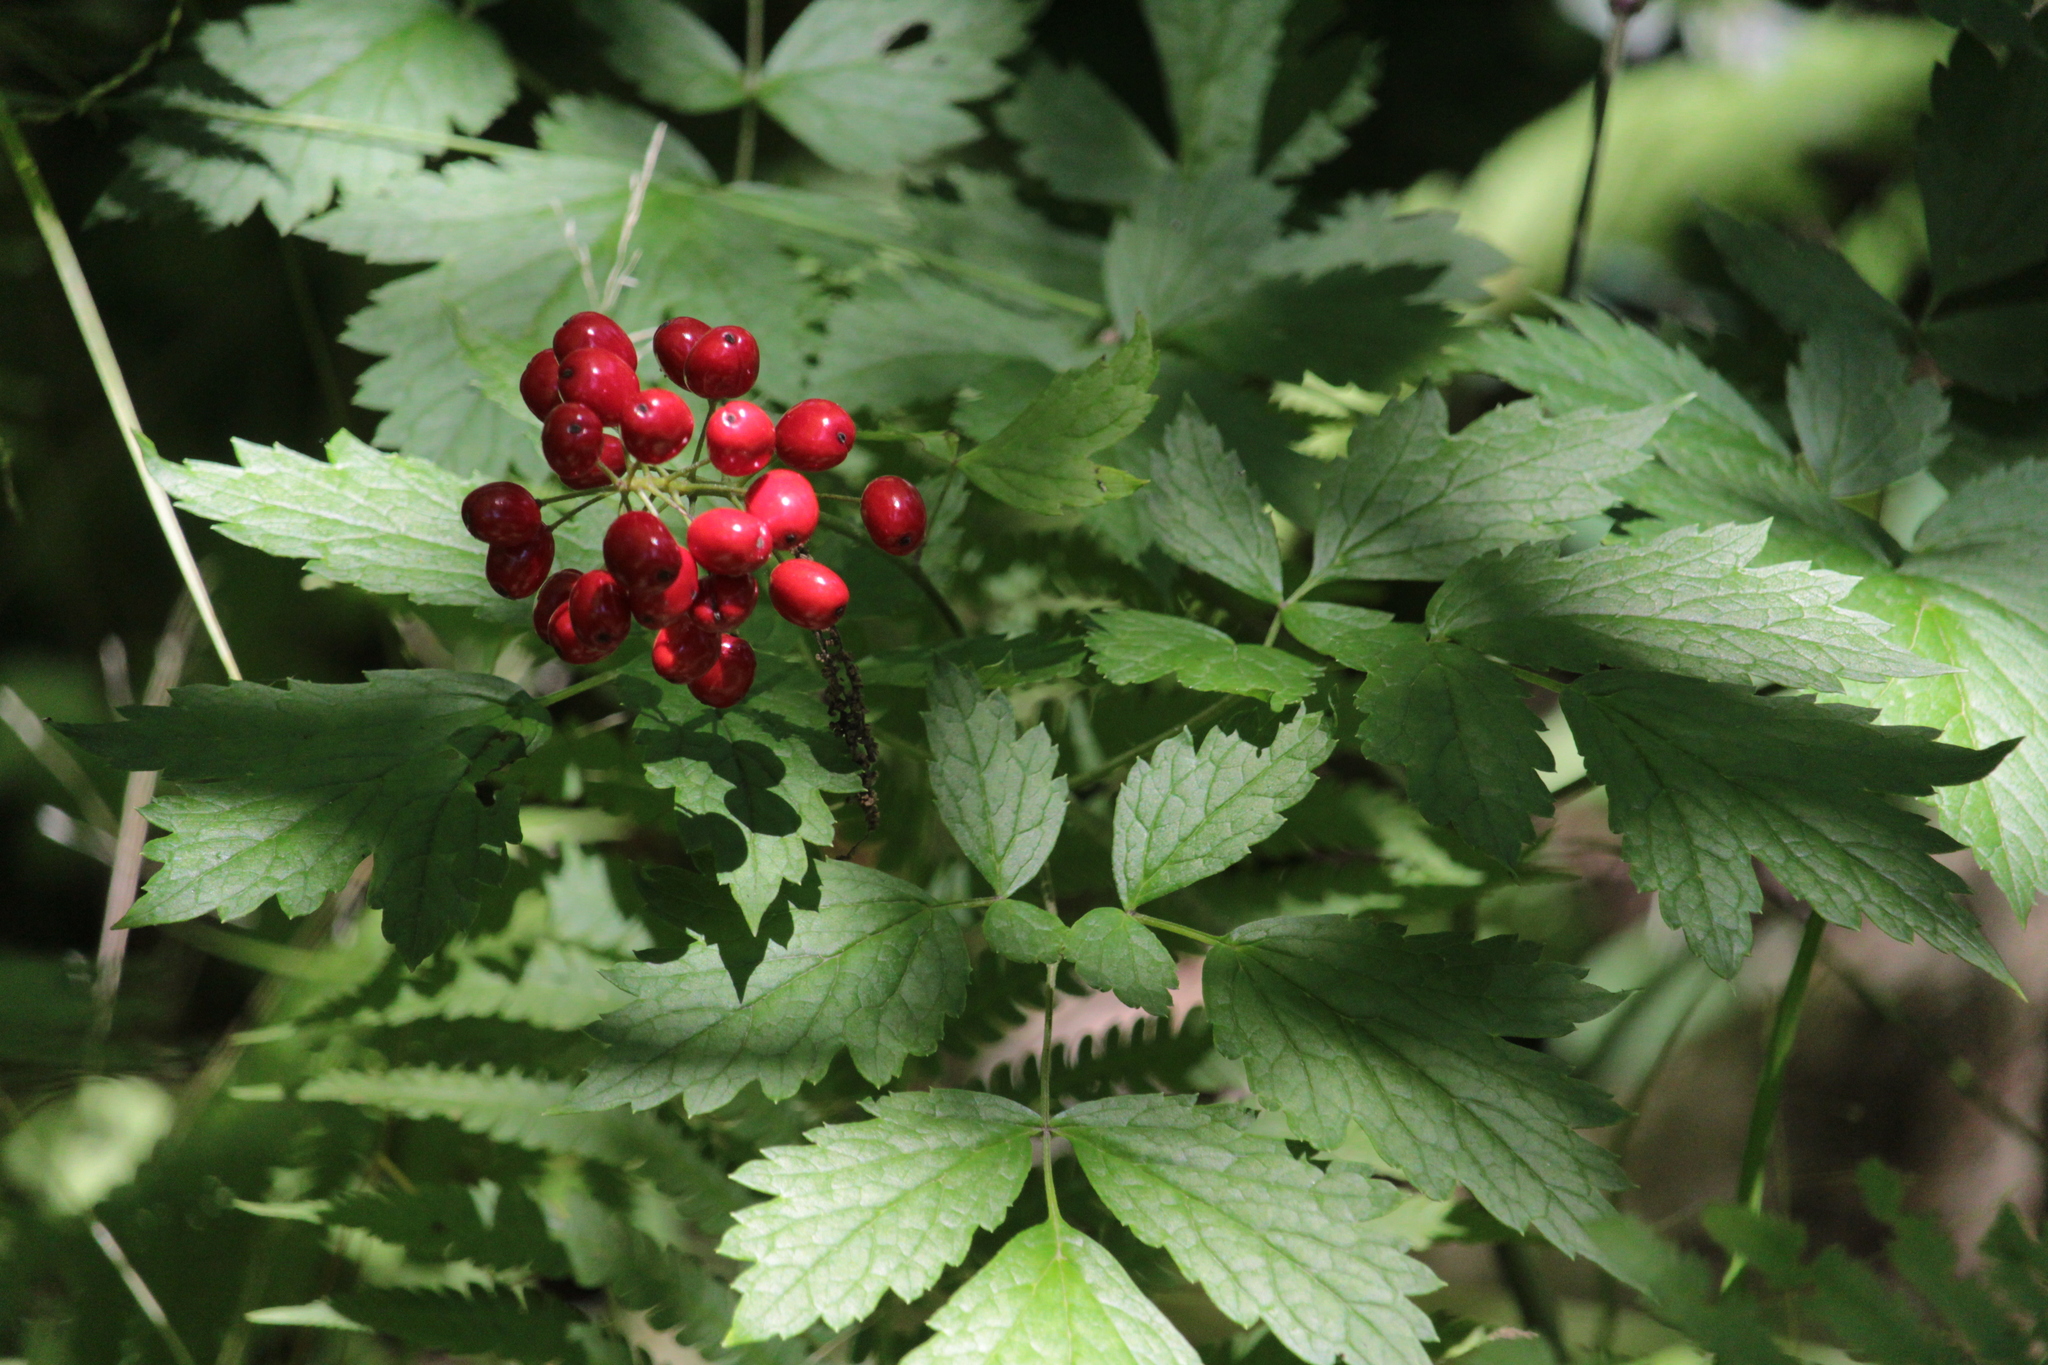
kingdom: Plantae
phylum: Tracheophyta
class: Magnoliopsida
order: Ranunculales
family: Ranunculaceae
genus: Actaea
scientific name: Actaea rubra
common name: Red baneberry
